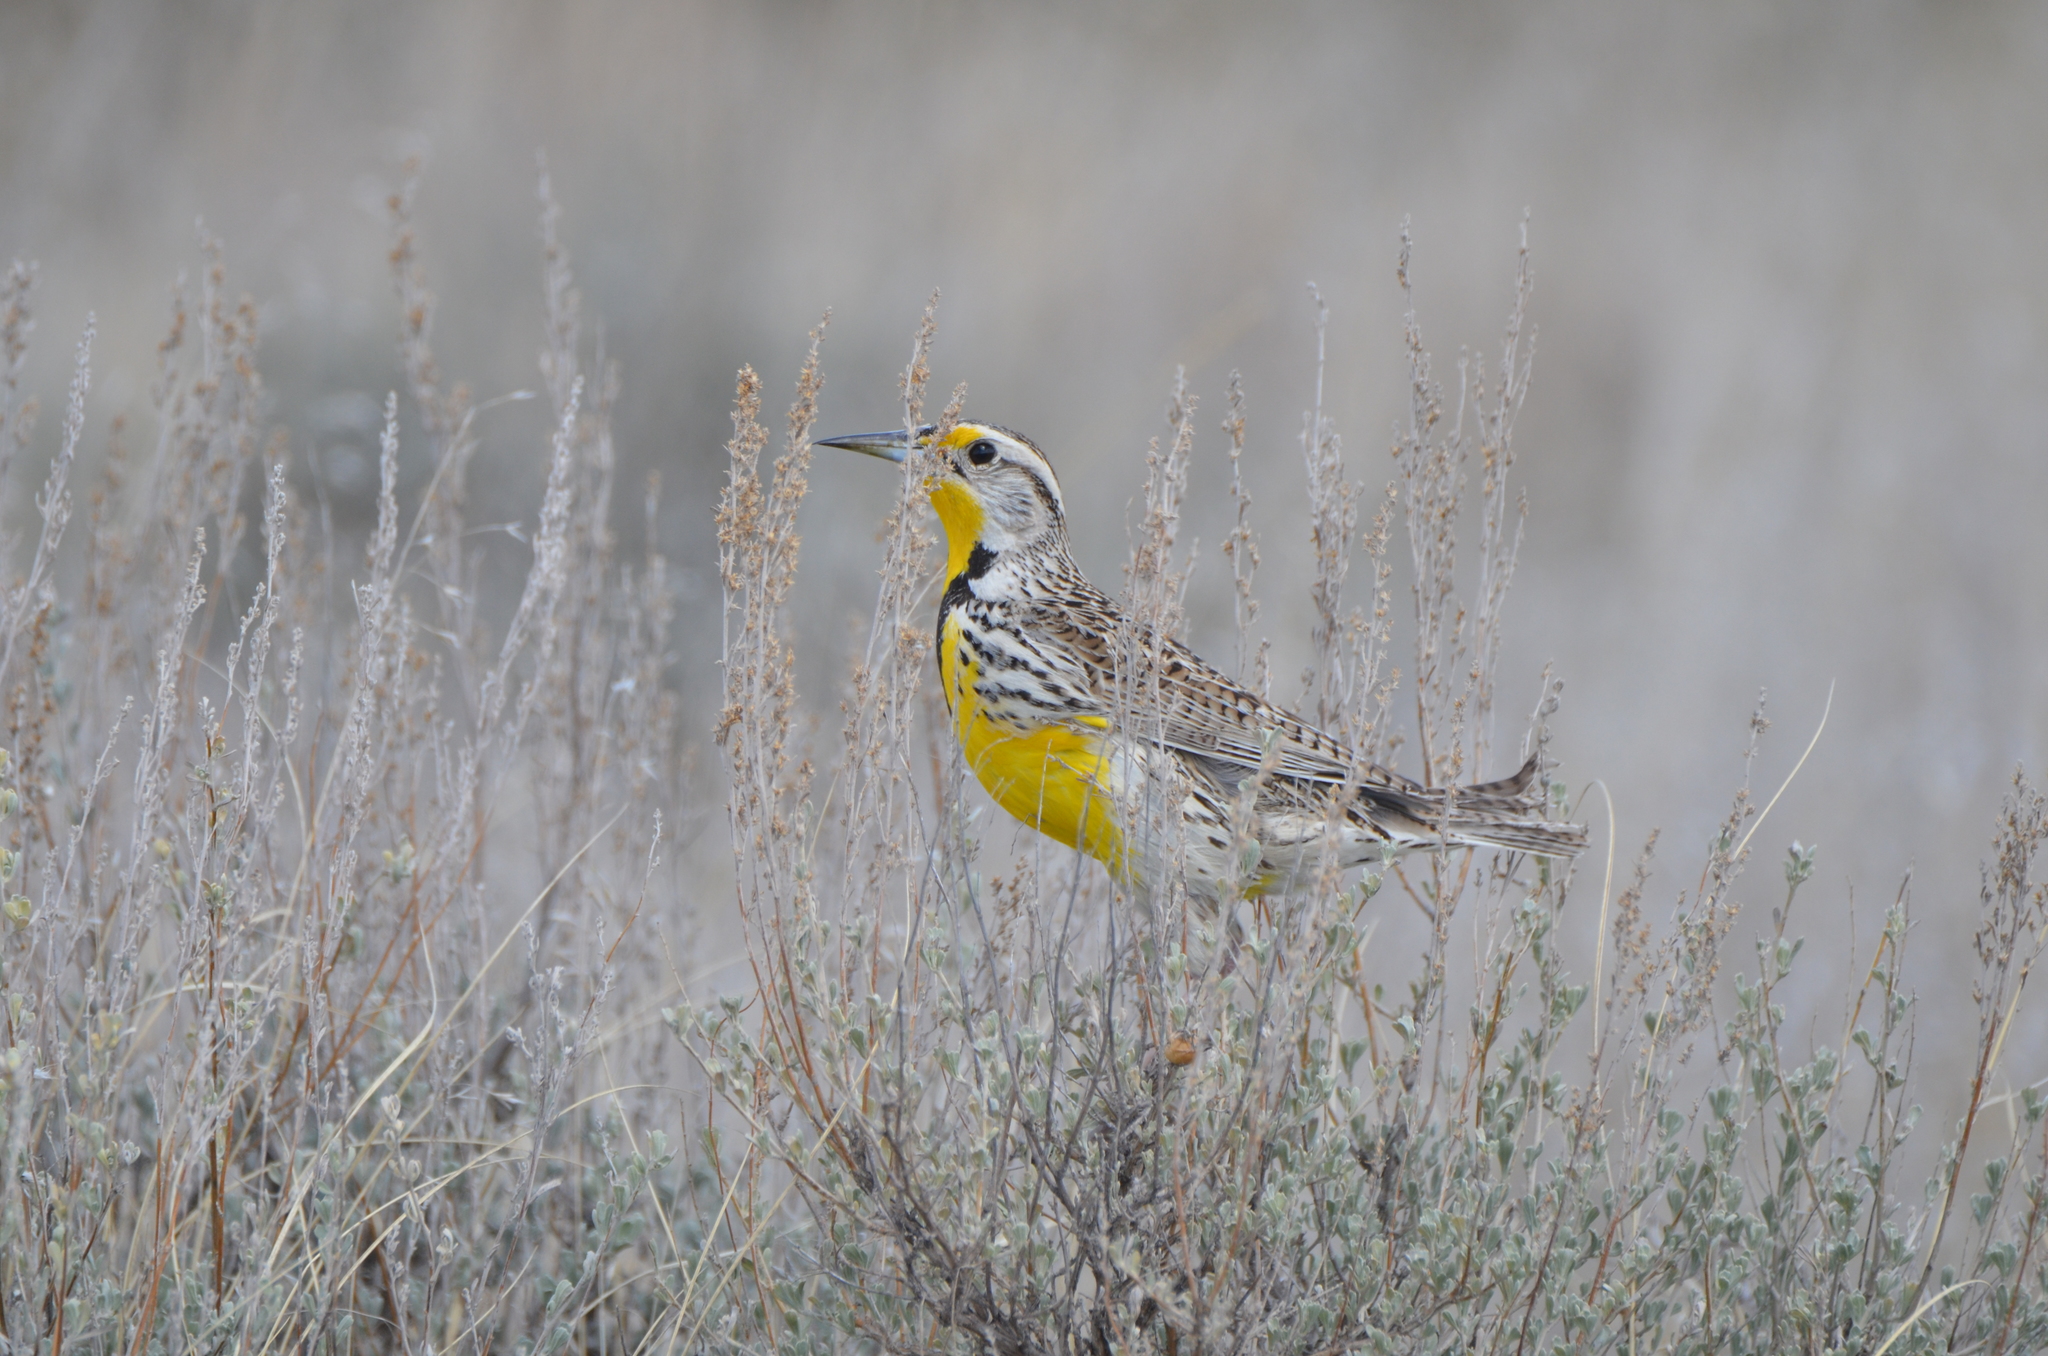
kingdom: Animalia
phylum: Chordata
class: Aves
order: Passeriformes
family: Icteridae
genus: Sturnella
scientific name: Sturnella neglecta
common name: Western meadowlark
